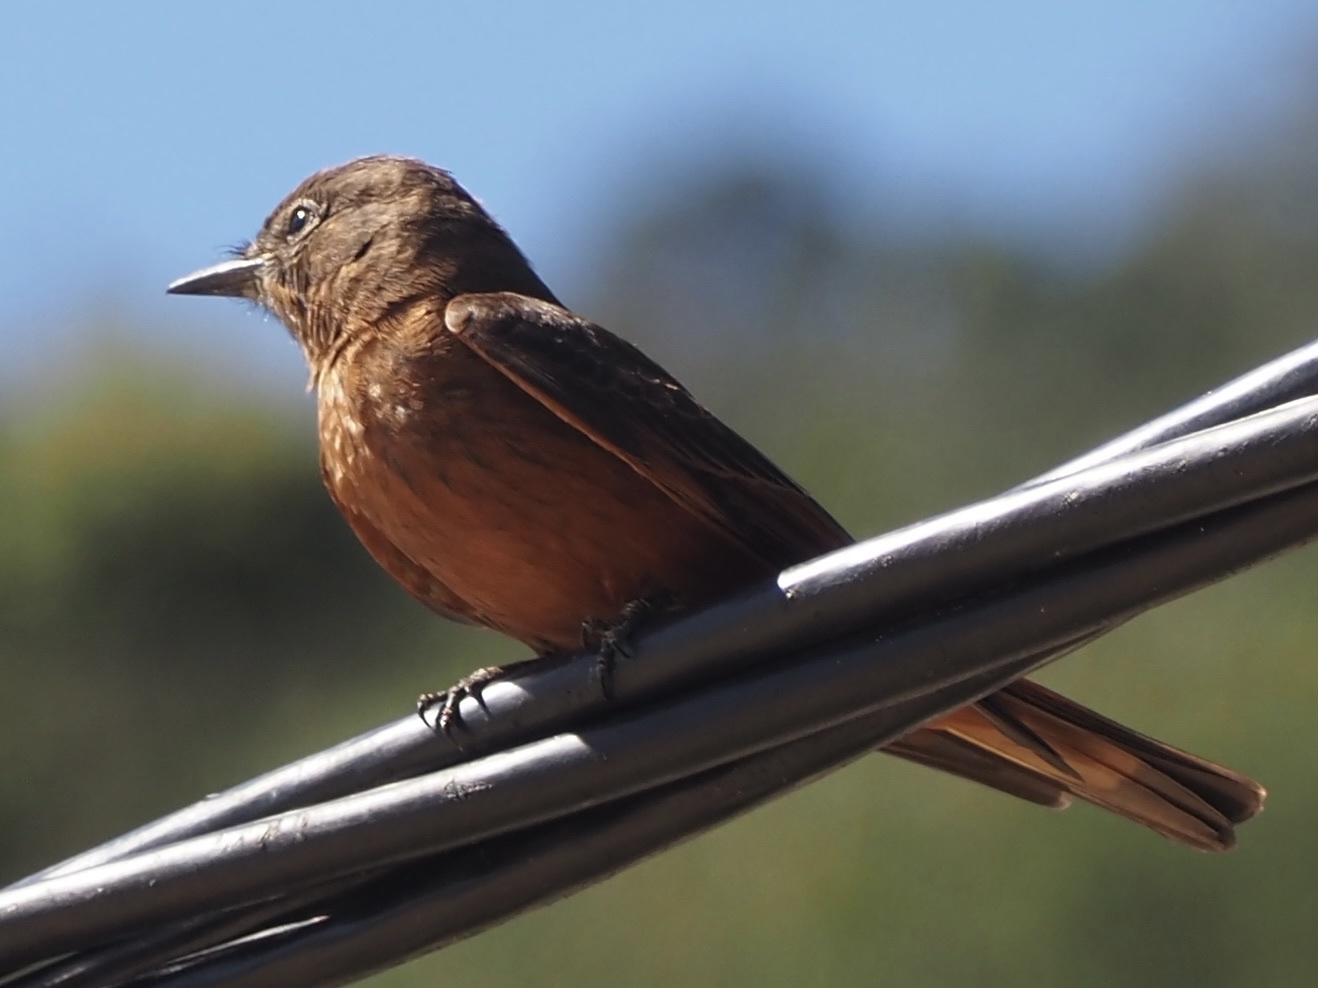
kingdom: Animalia
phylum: Chordata
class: Aves
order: Passeriformes
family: Tyrannidae
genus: Hirundinea
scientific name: Hirundinea ferruginea
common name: Cliff flycatcher
